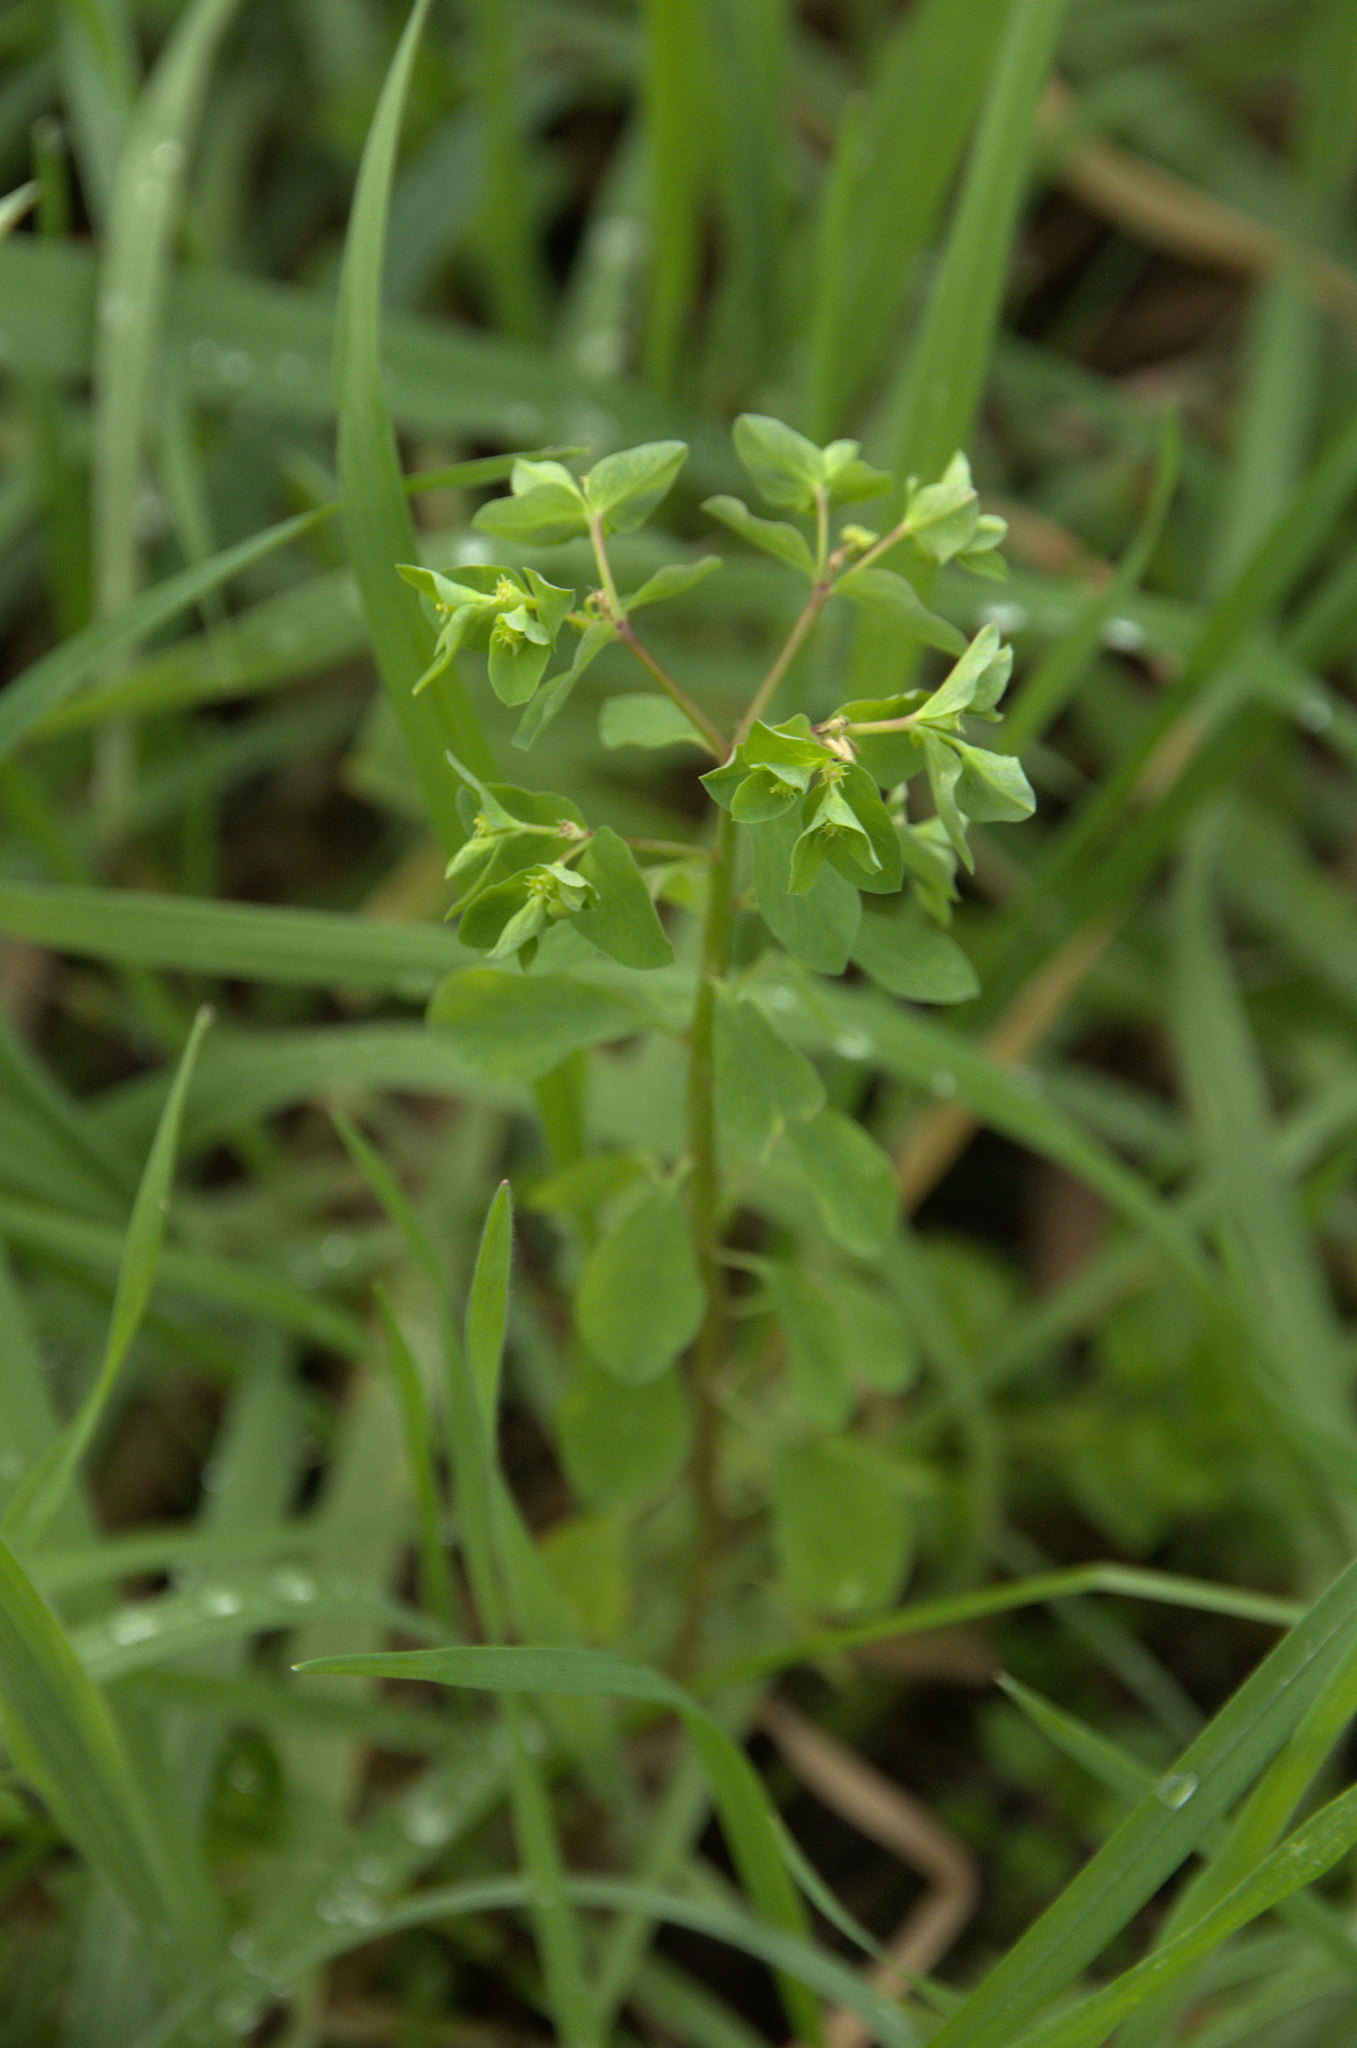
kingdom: Plantae
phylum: Tracheophyta
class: Magnoliopsida
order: Malpighiales
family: Euphorbiaceae
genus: Euphorbia
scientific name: Euphorbia peplus
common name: Petty spurge
